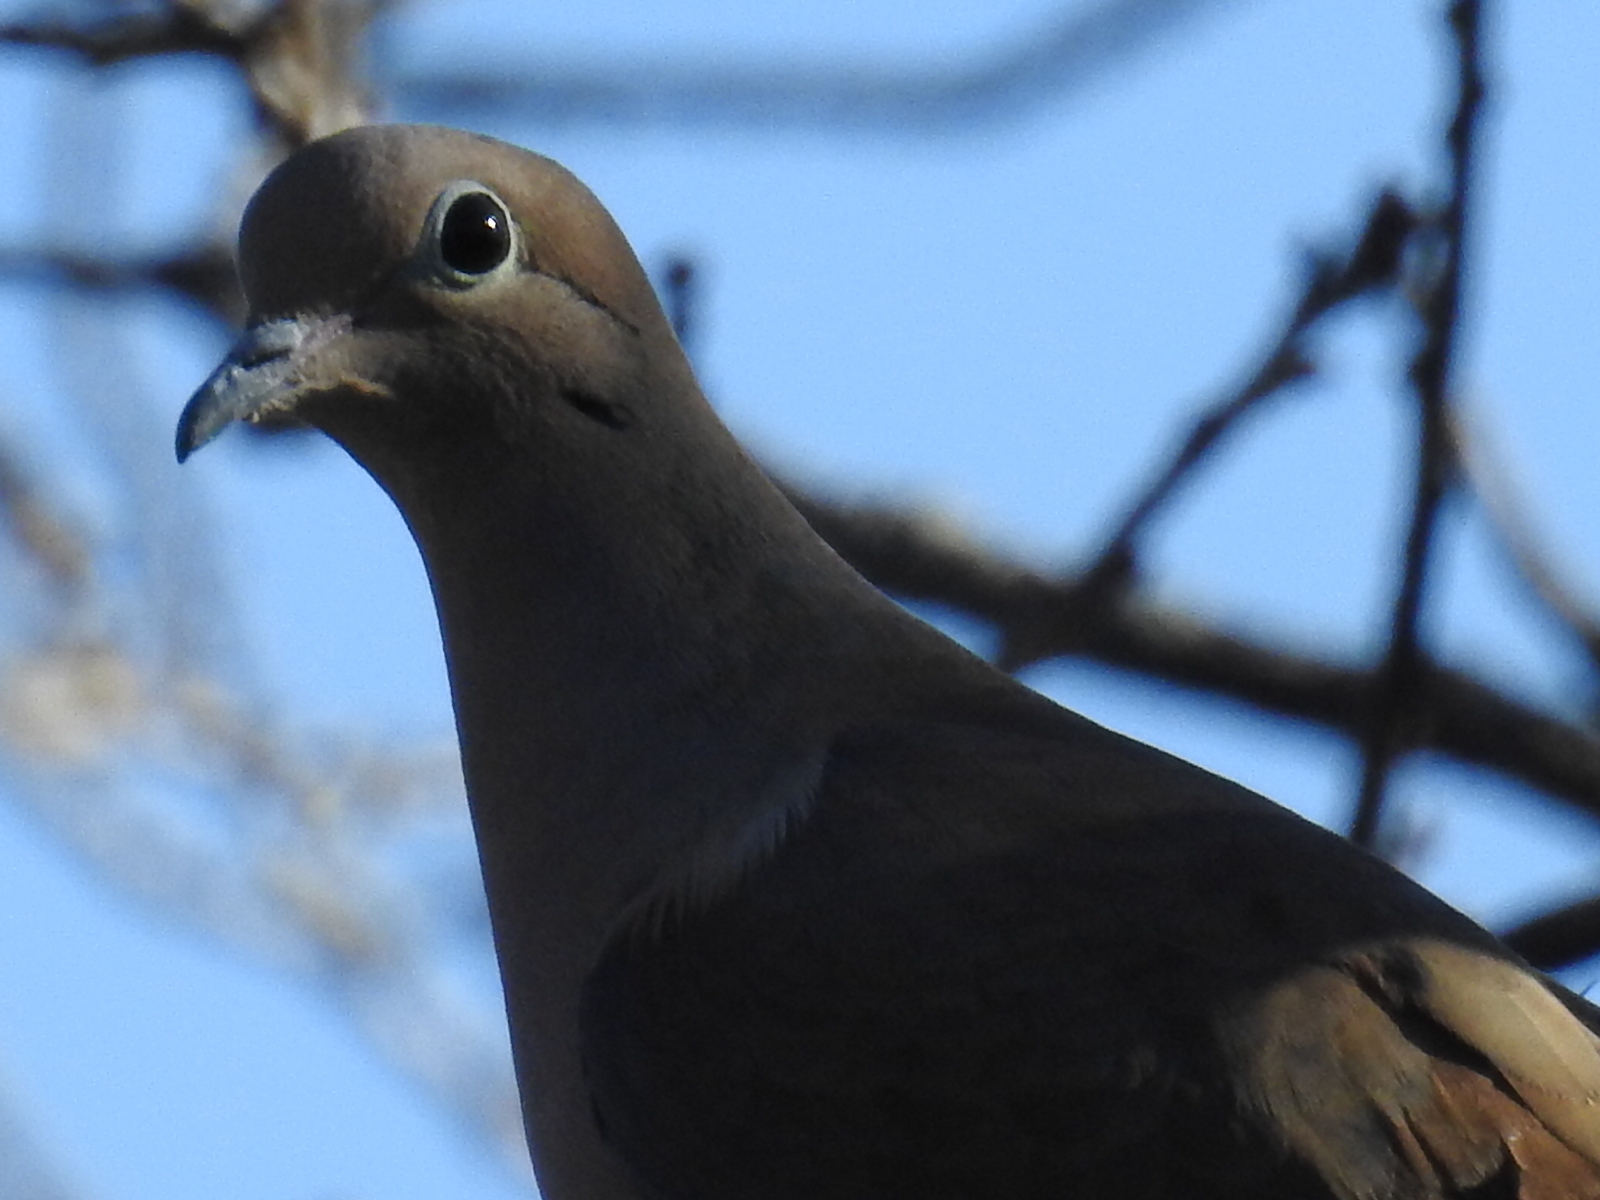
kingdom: Animalia
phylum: Chordata
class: Aves
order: Columbiformes
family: Columbidae
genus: Zenaida
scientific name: Zenaida macroura
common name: Mourning dove
